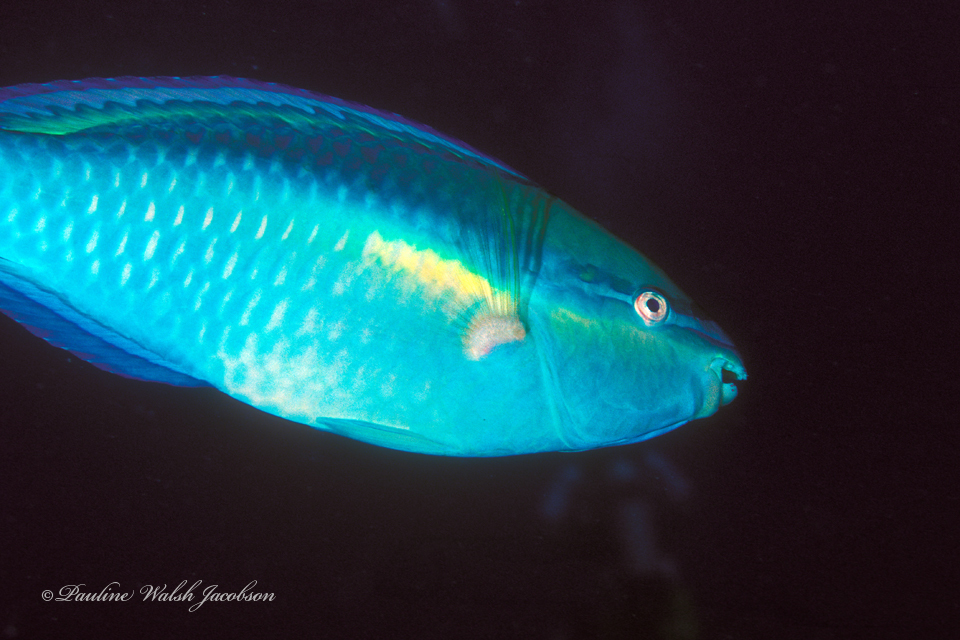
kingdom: Animalia
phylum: Chordata
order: Perciformes
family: Scaridae
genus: Scarus
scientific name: Scarus taeniopterus
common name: Princess parrotfish
